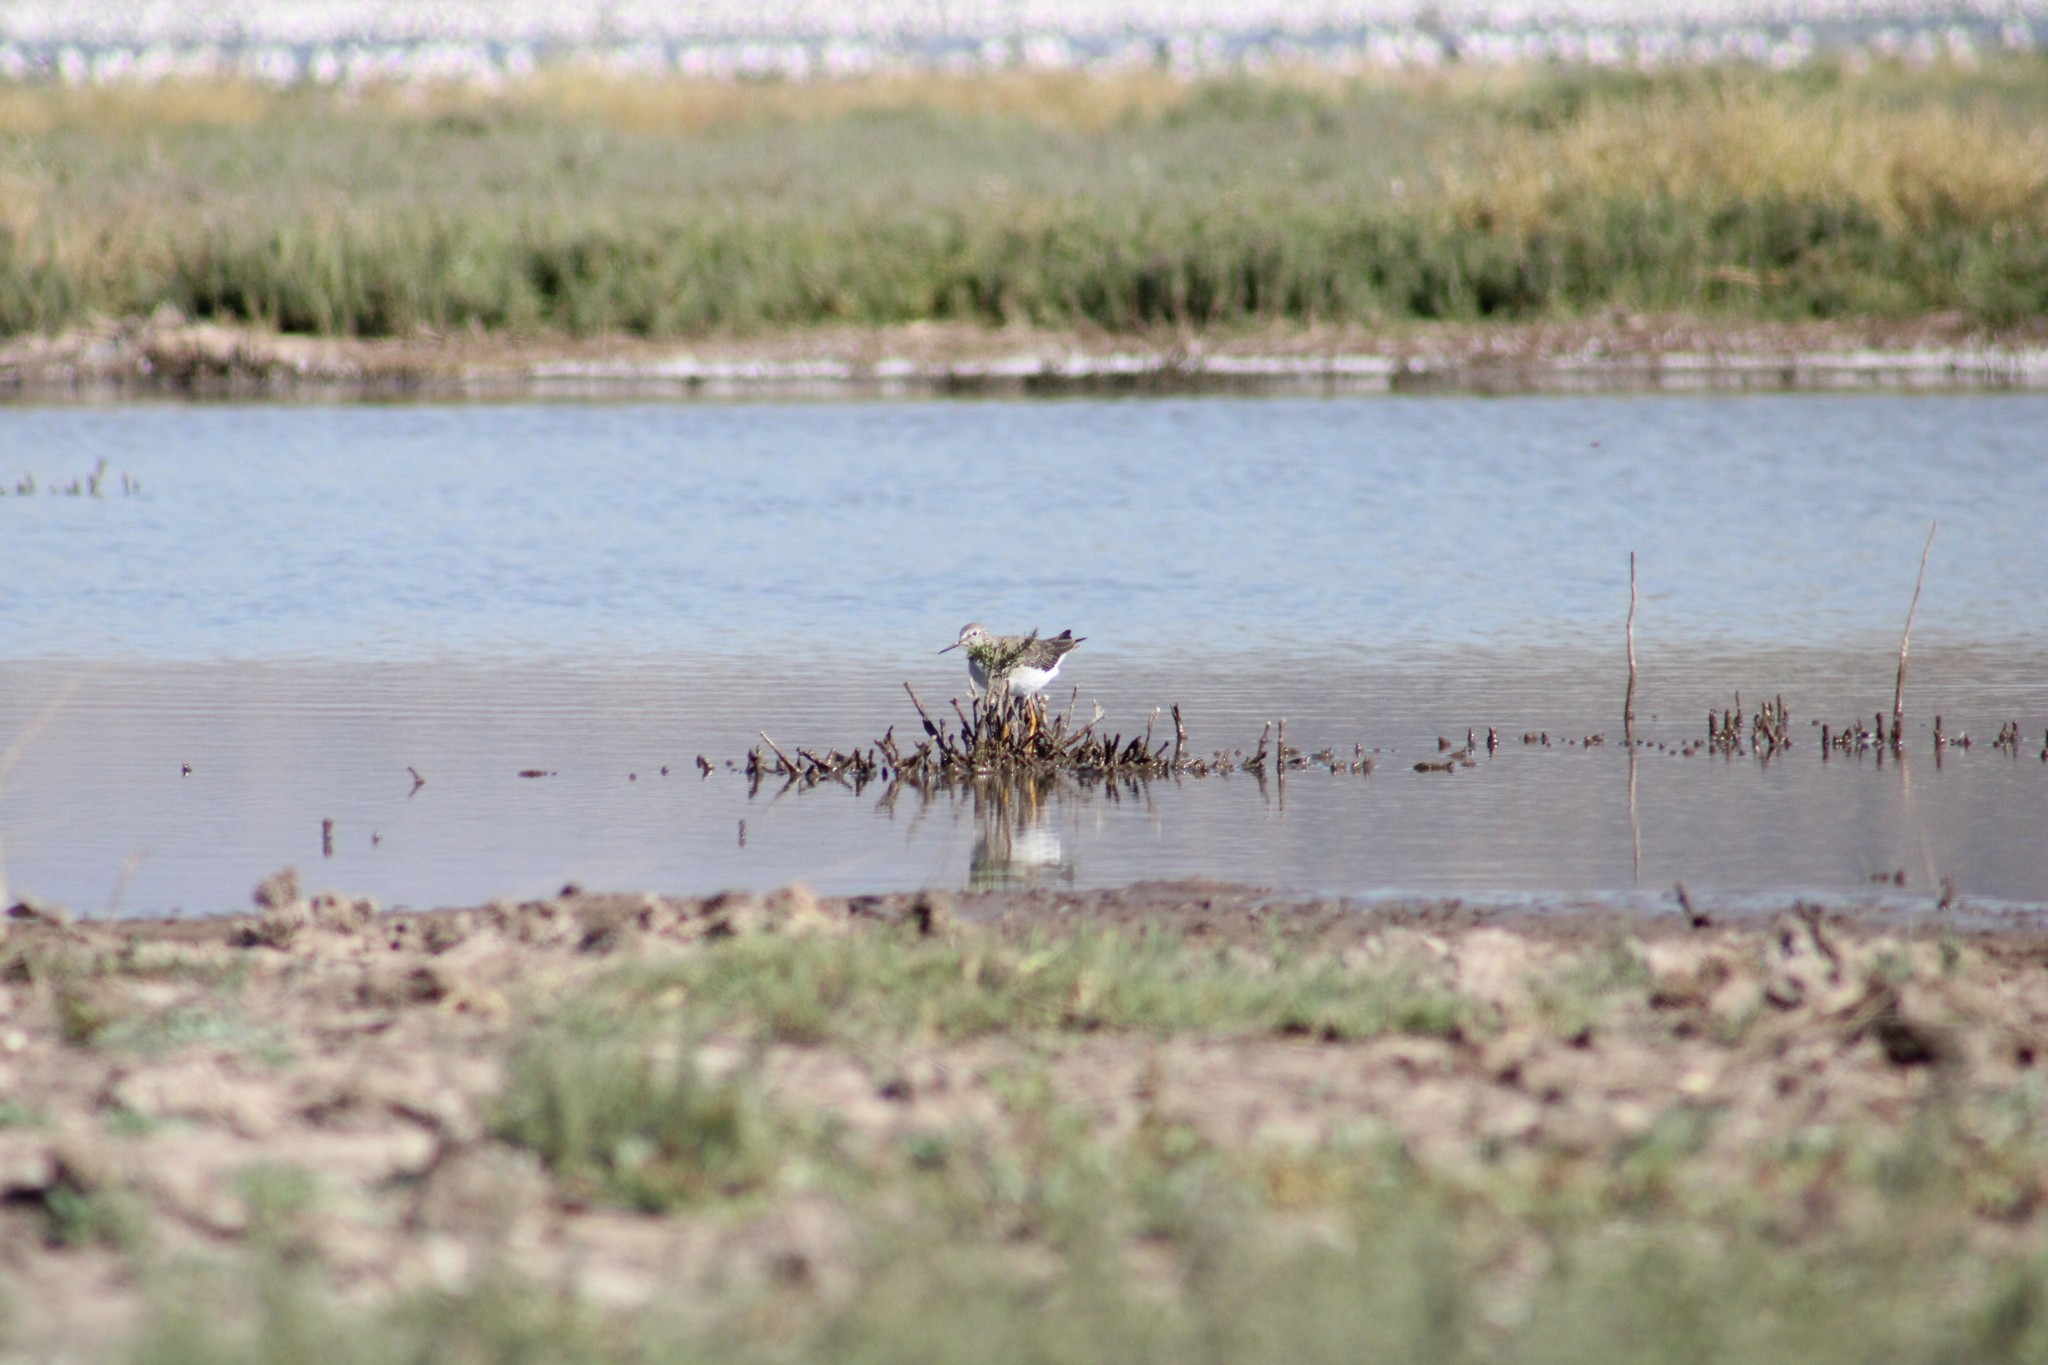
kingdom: Animalia
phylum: Chordata
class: Aves
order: Charadriiformes
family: Scolopacidae
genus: Tringa
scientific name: Tringa flavipes
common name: Lesser yellowlegs
